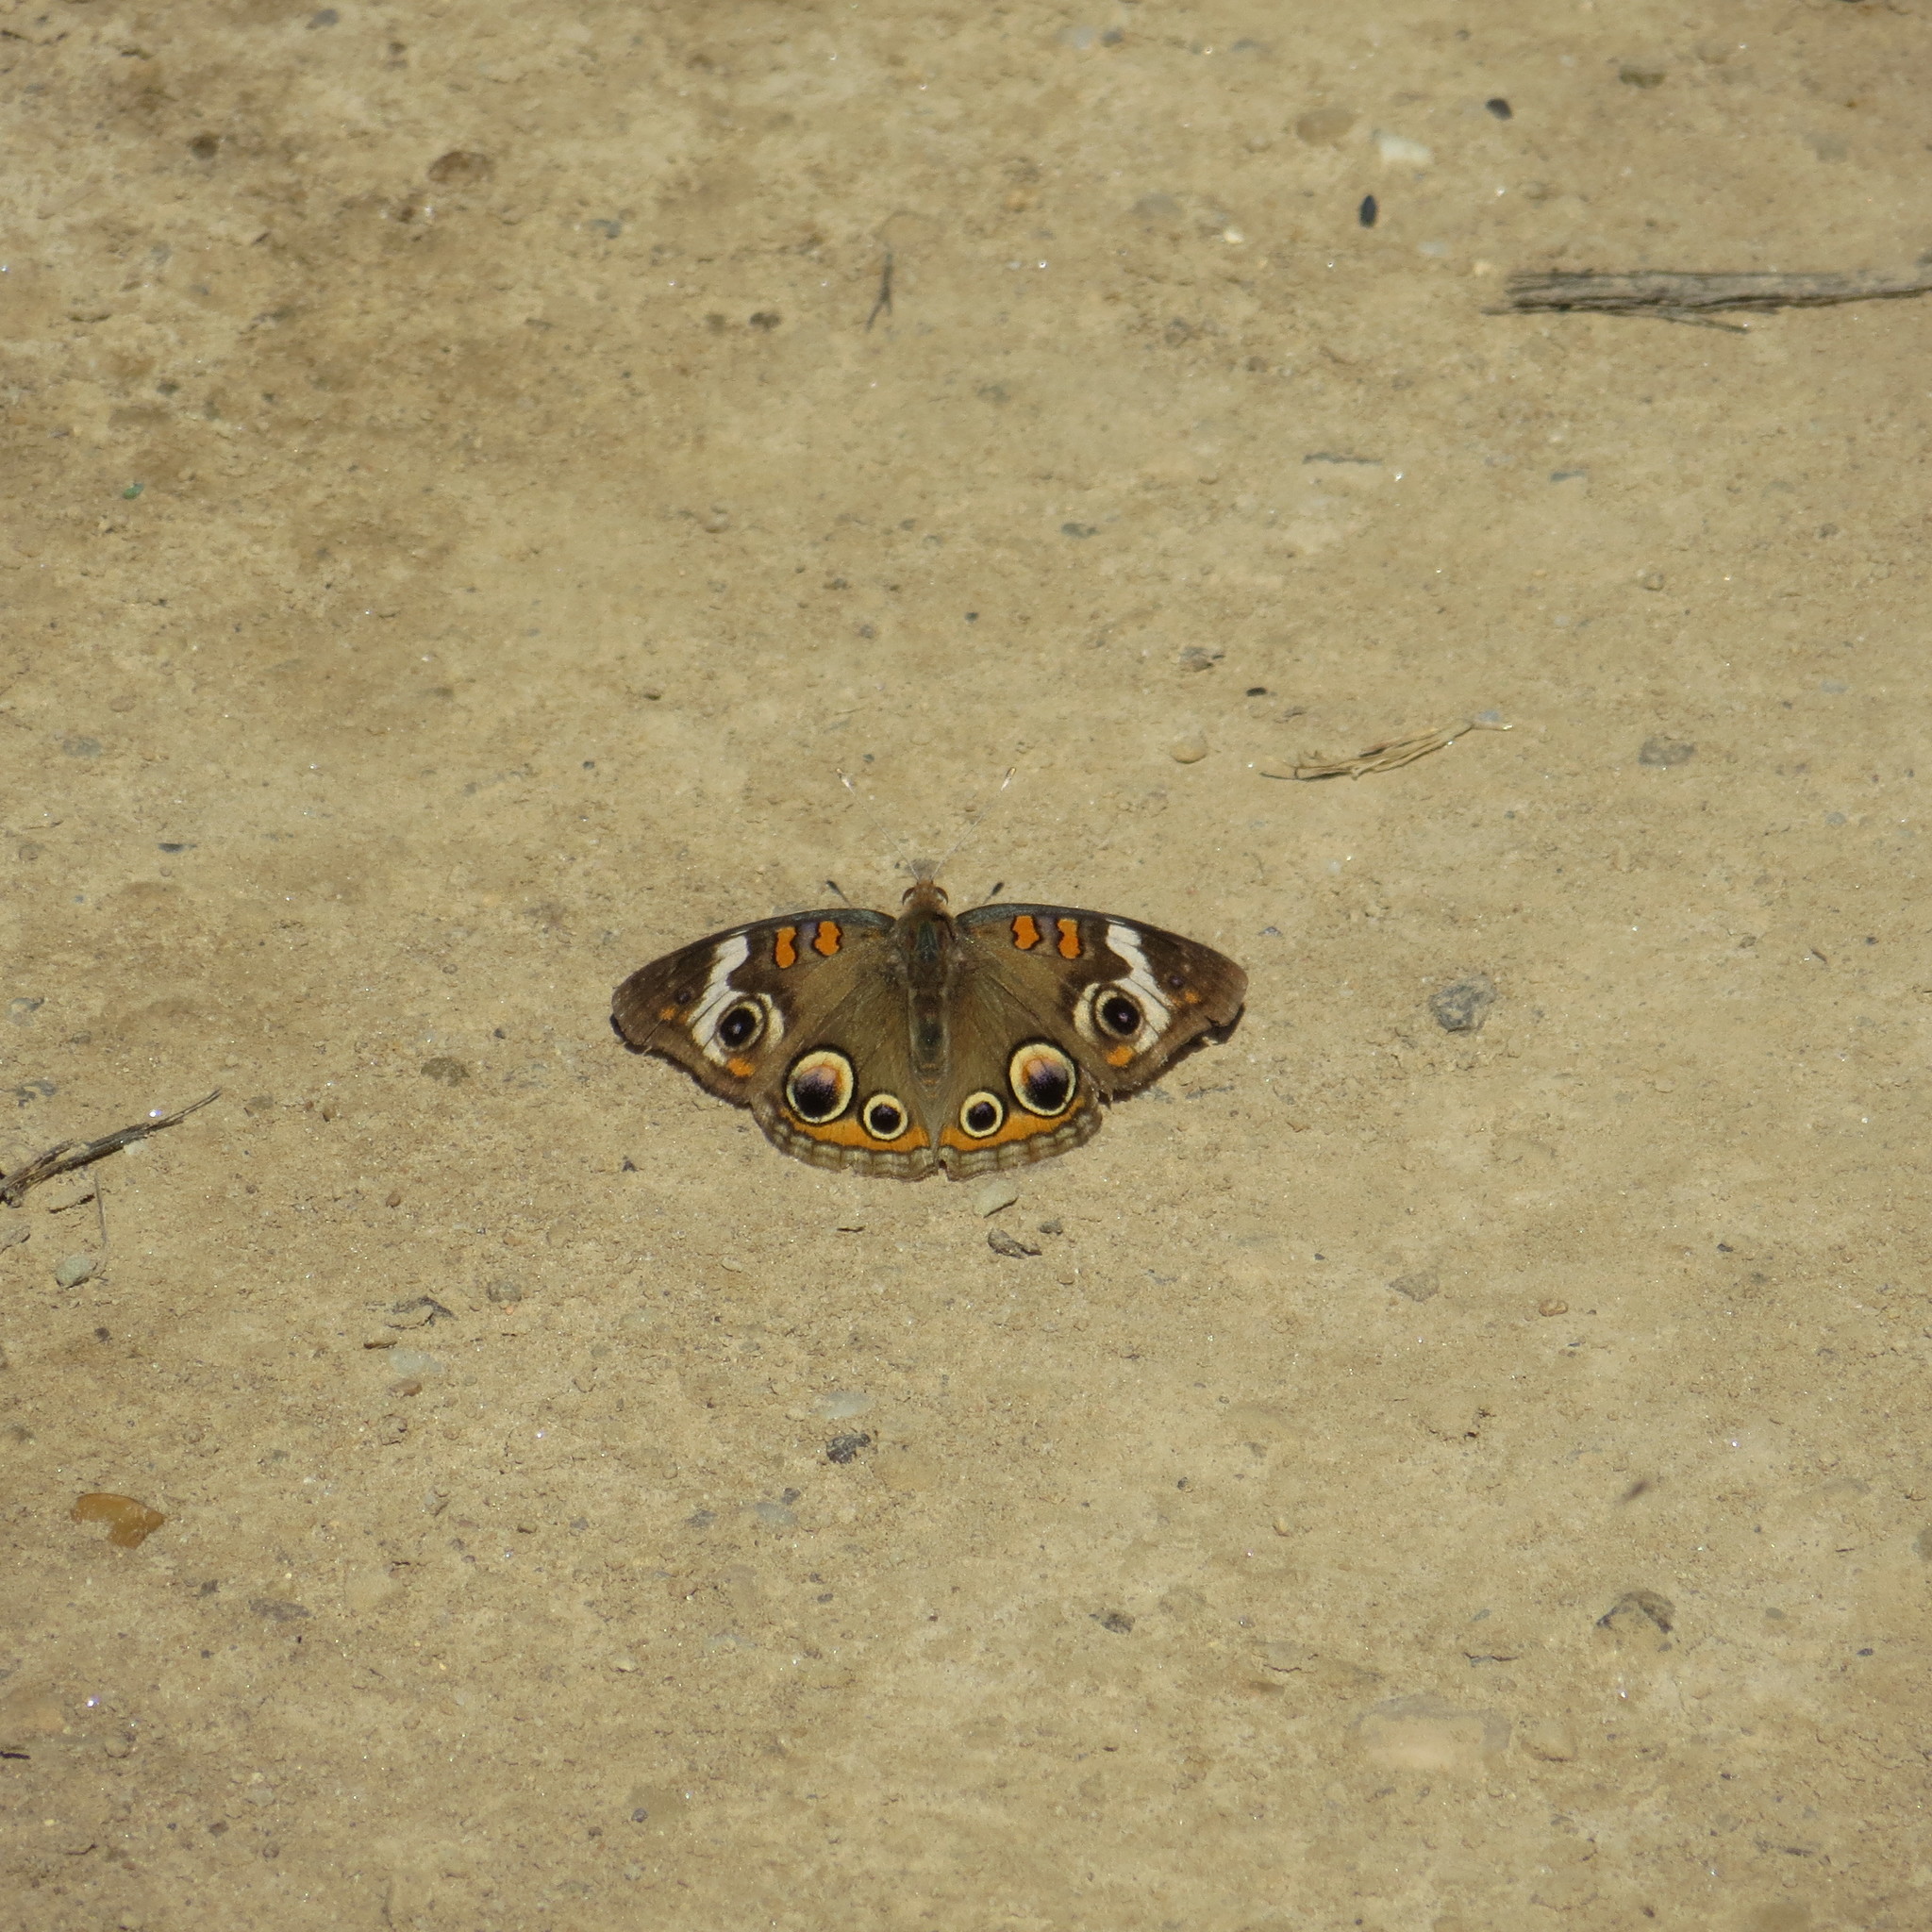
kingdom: Animalia
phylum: Arthropoda
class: Insecta
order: Lepidoptera
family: Nymphalidae
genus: Junonia
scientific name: Junonia coenia
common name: Common buckeye
